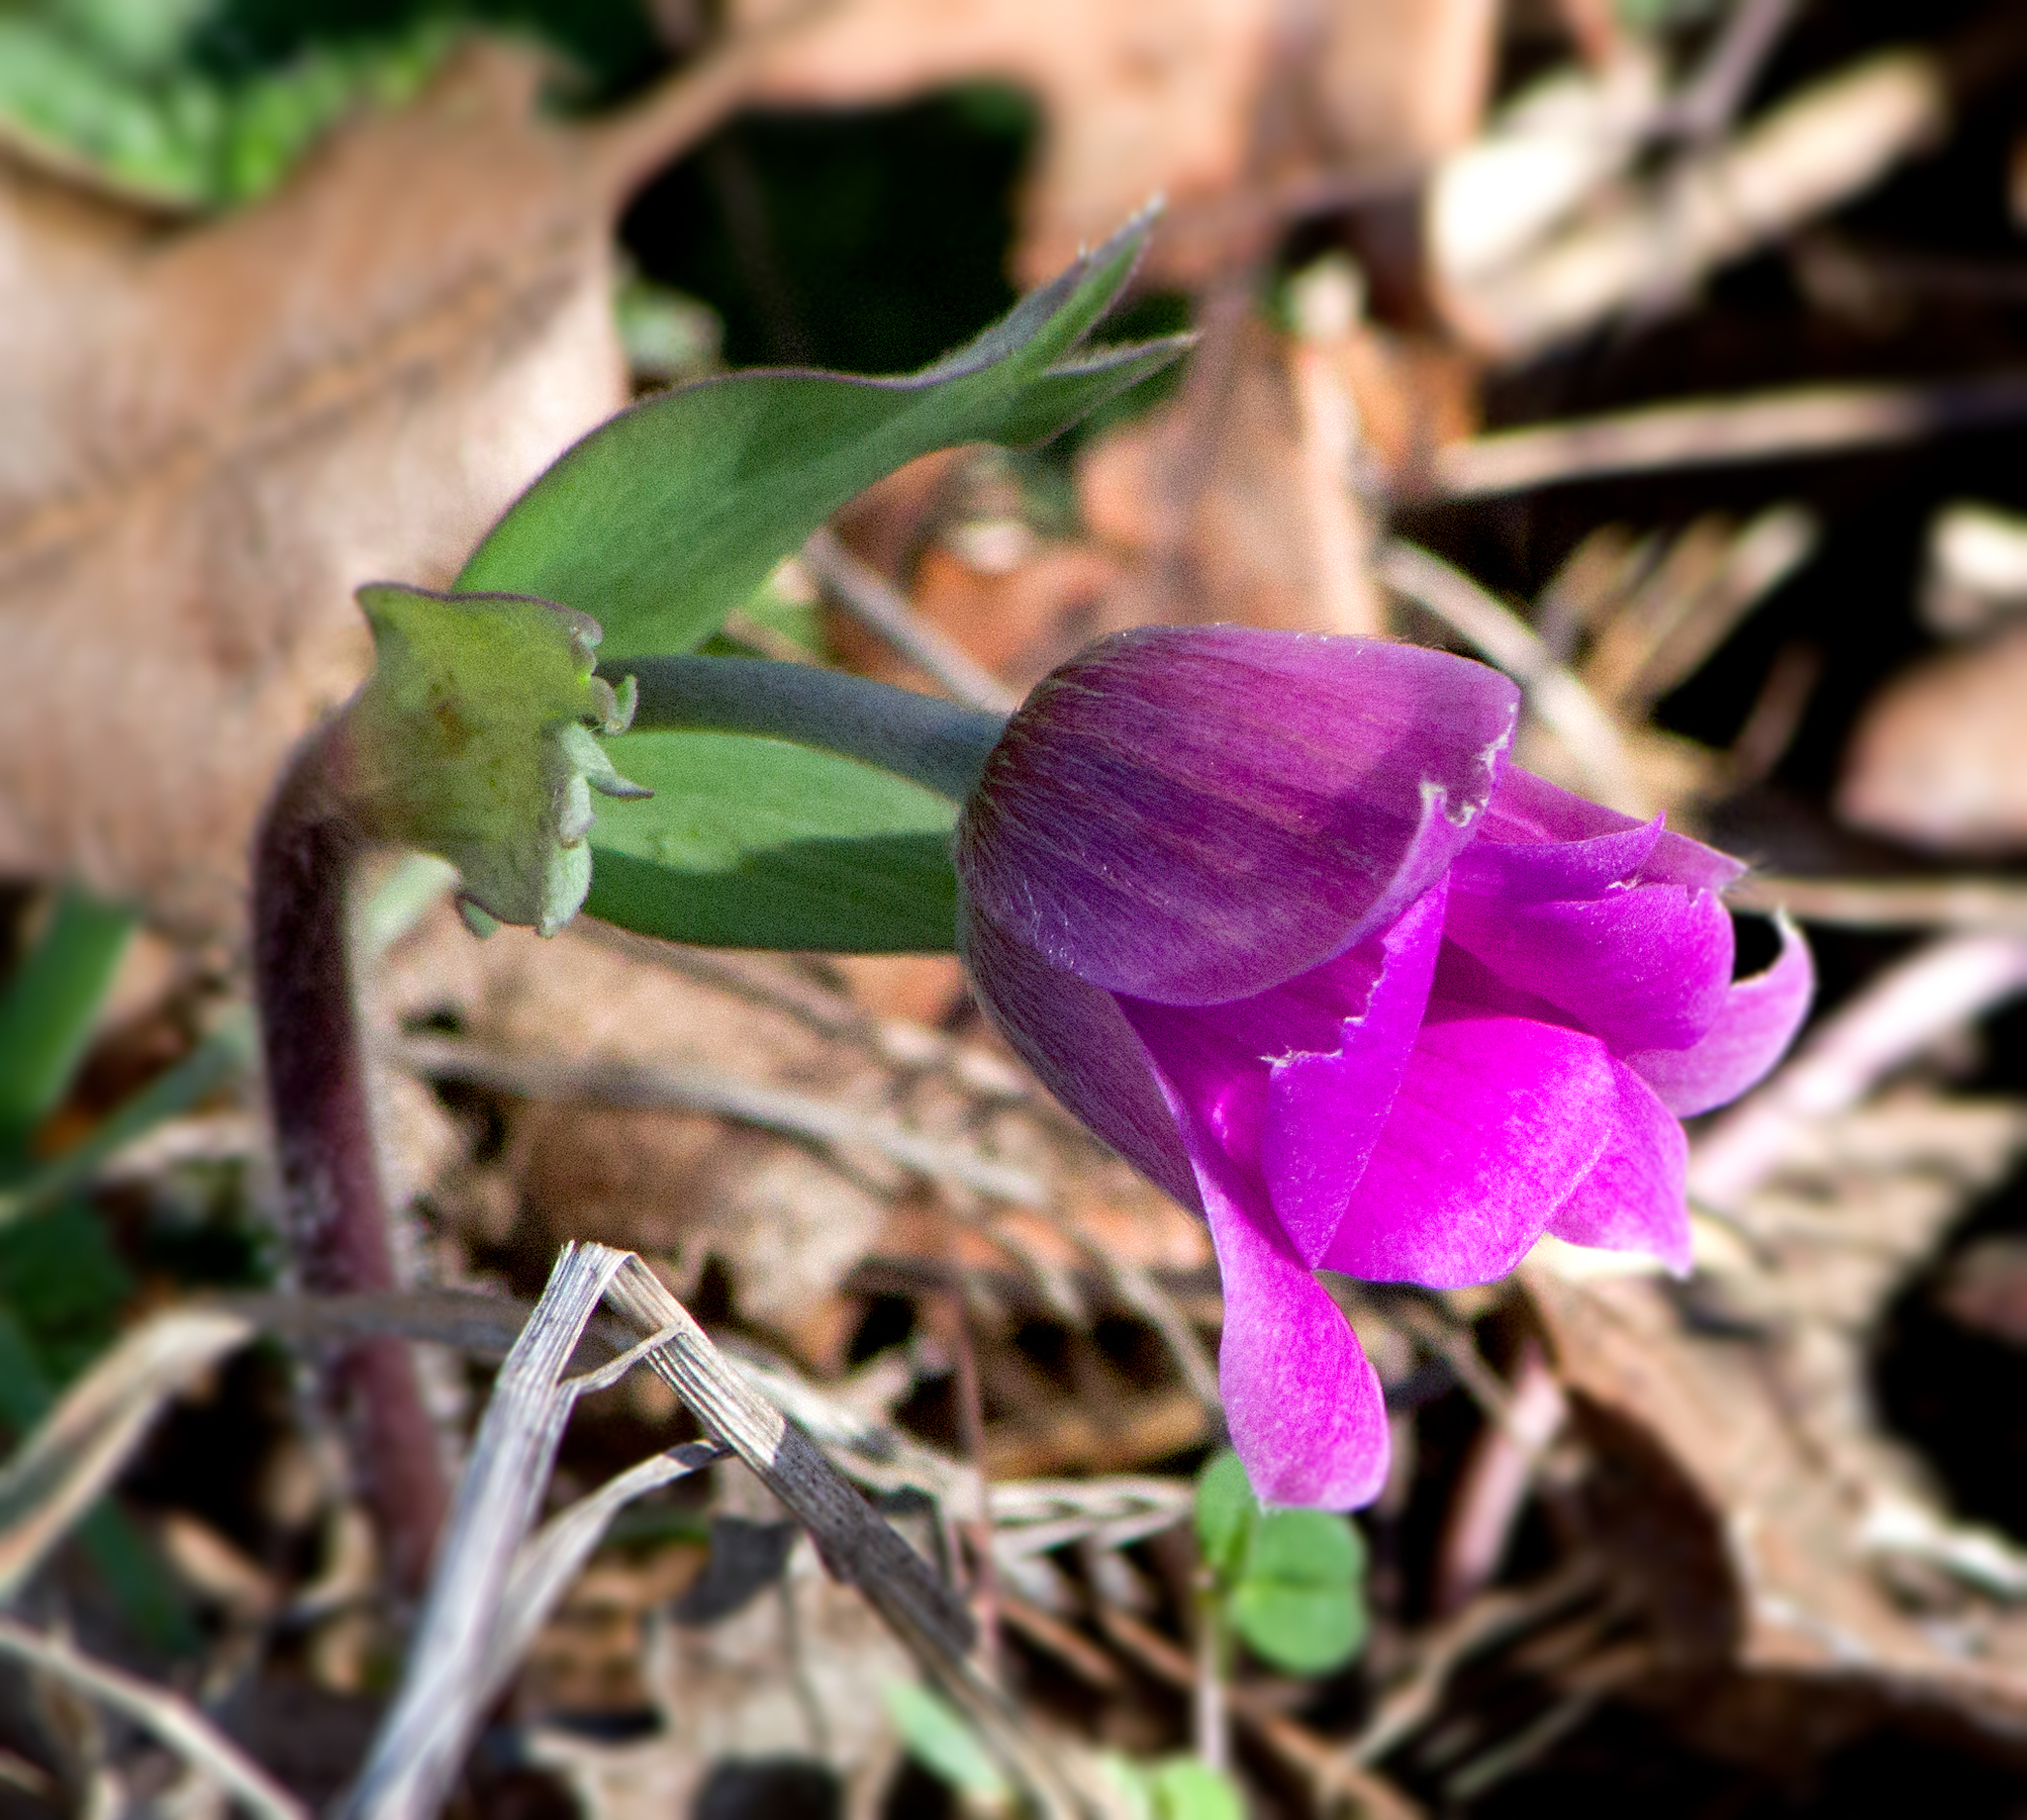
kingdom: Plantae
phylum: Tracheophyta
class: Magnoliopsida
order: Ranunculales
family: Ranunculaceae
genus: Anemone
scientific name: Anemone pavonina
